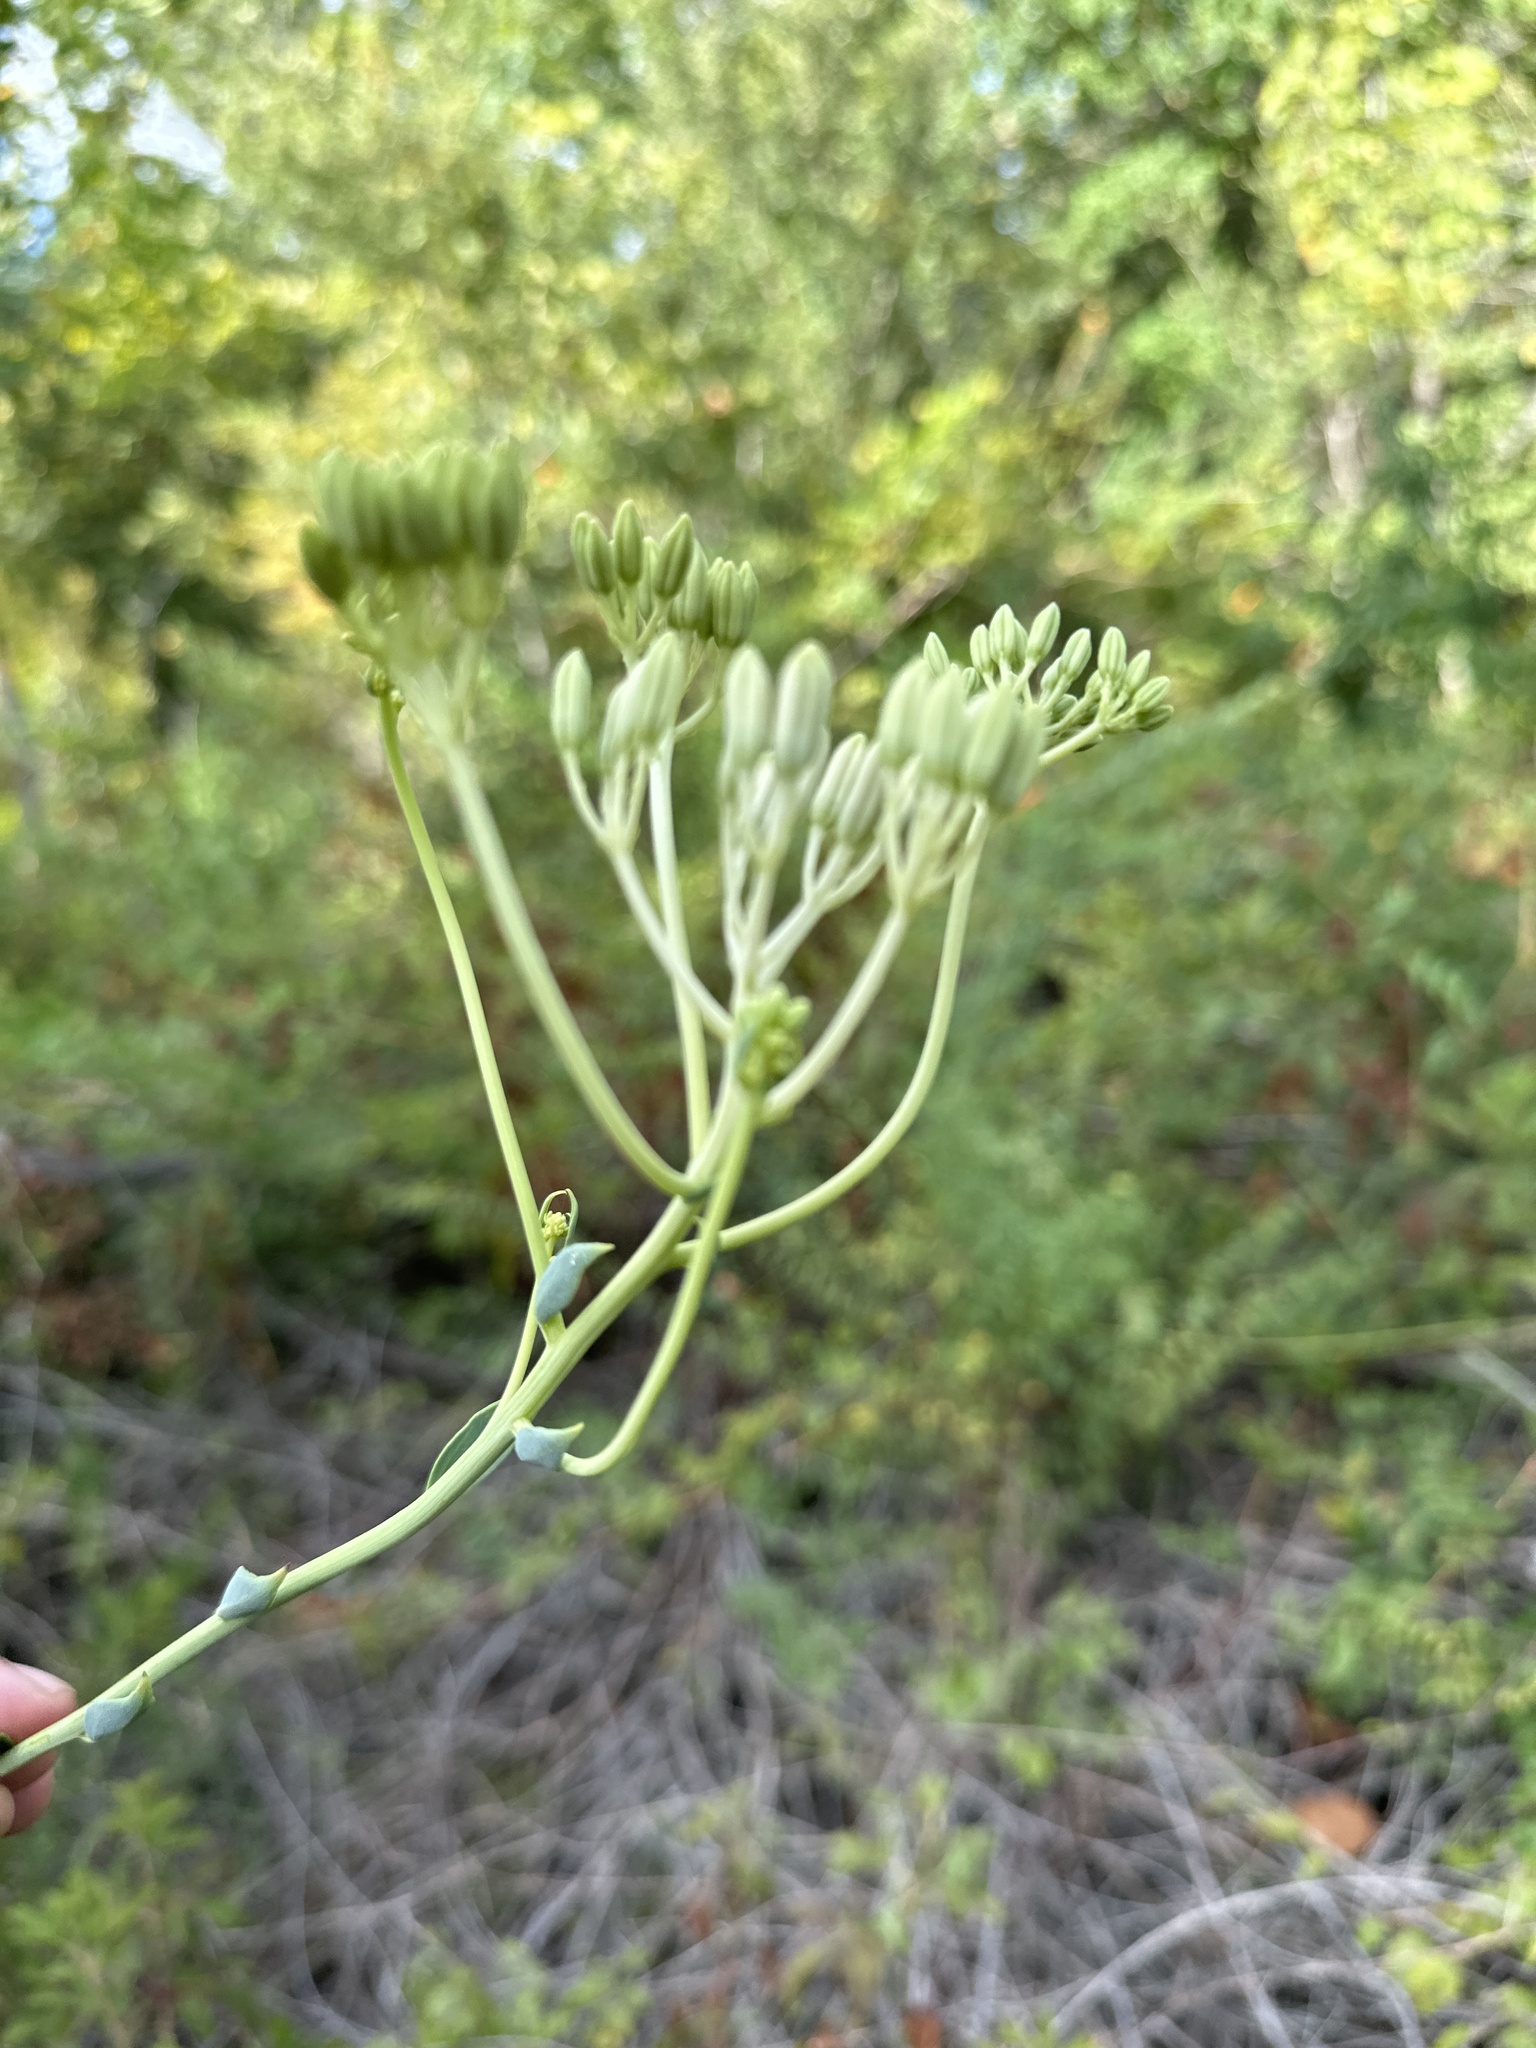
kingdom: Plantae
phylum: Tracheophyta
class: Magnoliopsida
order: Asterales
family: Asteraceae
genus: Arnoglossum
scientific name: Arnoglossum ovatum
